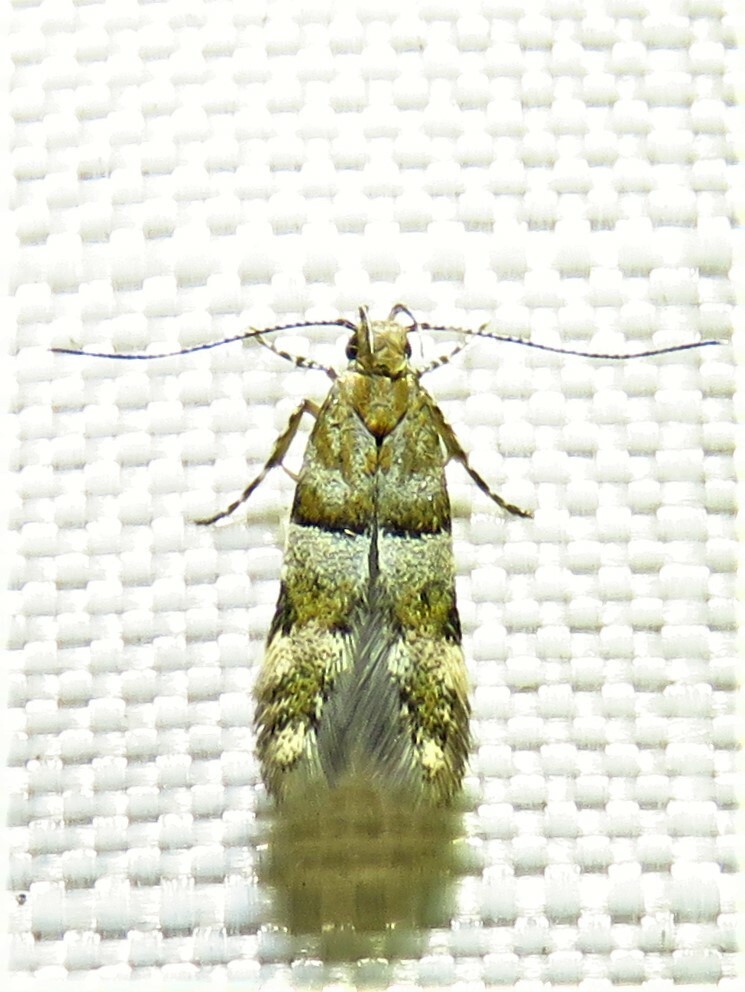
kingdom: Animalia
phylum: Arthropoda
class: Insecta
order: Lepidoptera
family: Gelechiidae
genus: Theisoa
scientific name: Theisoa multifasciella
